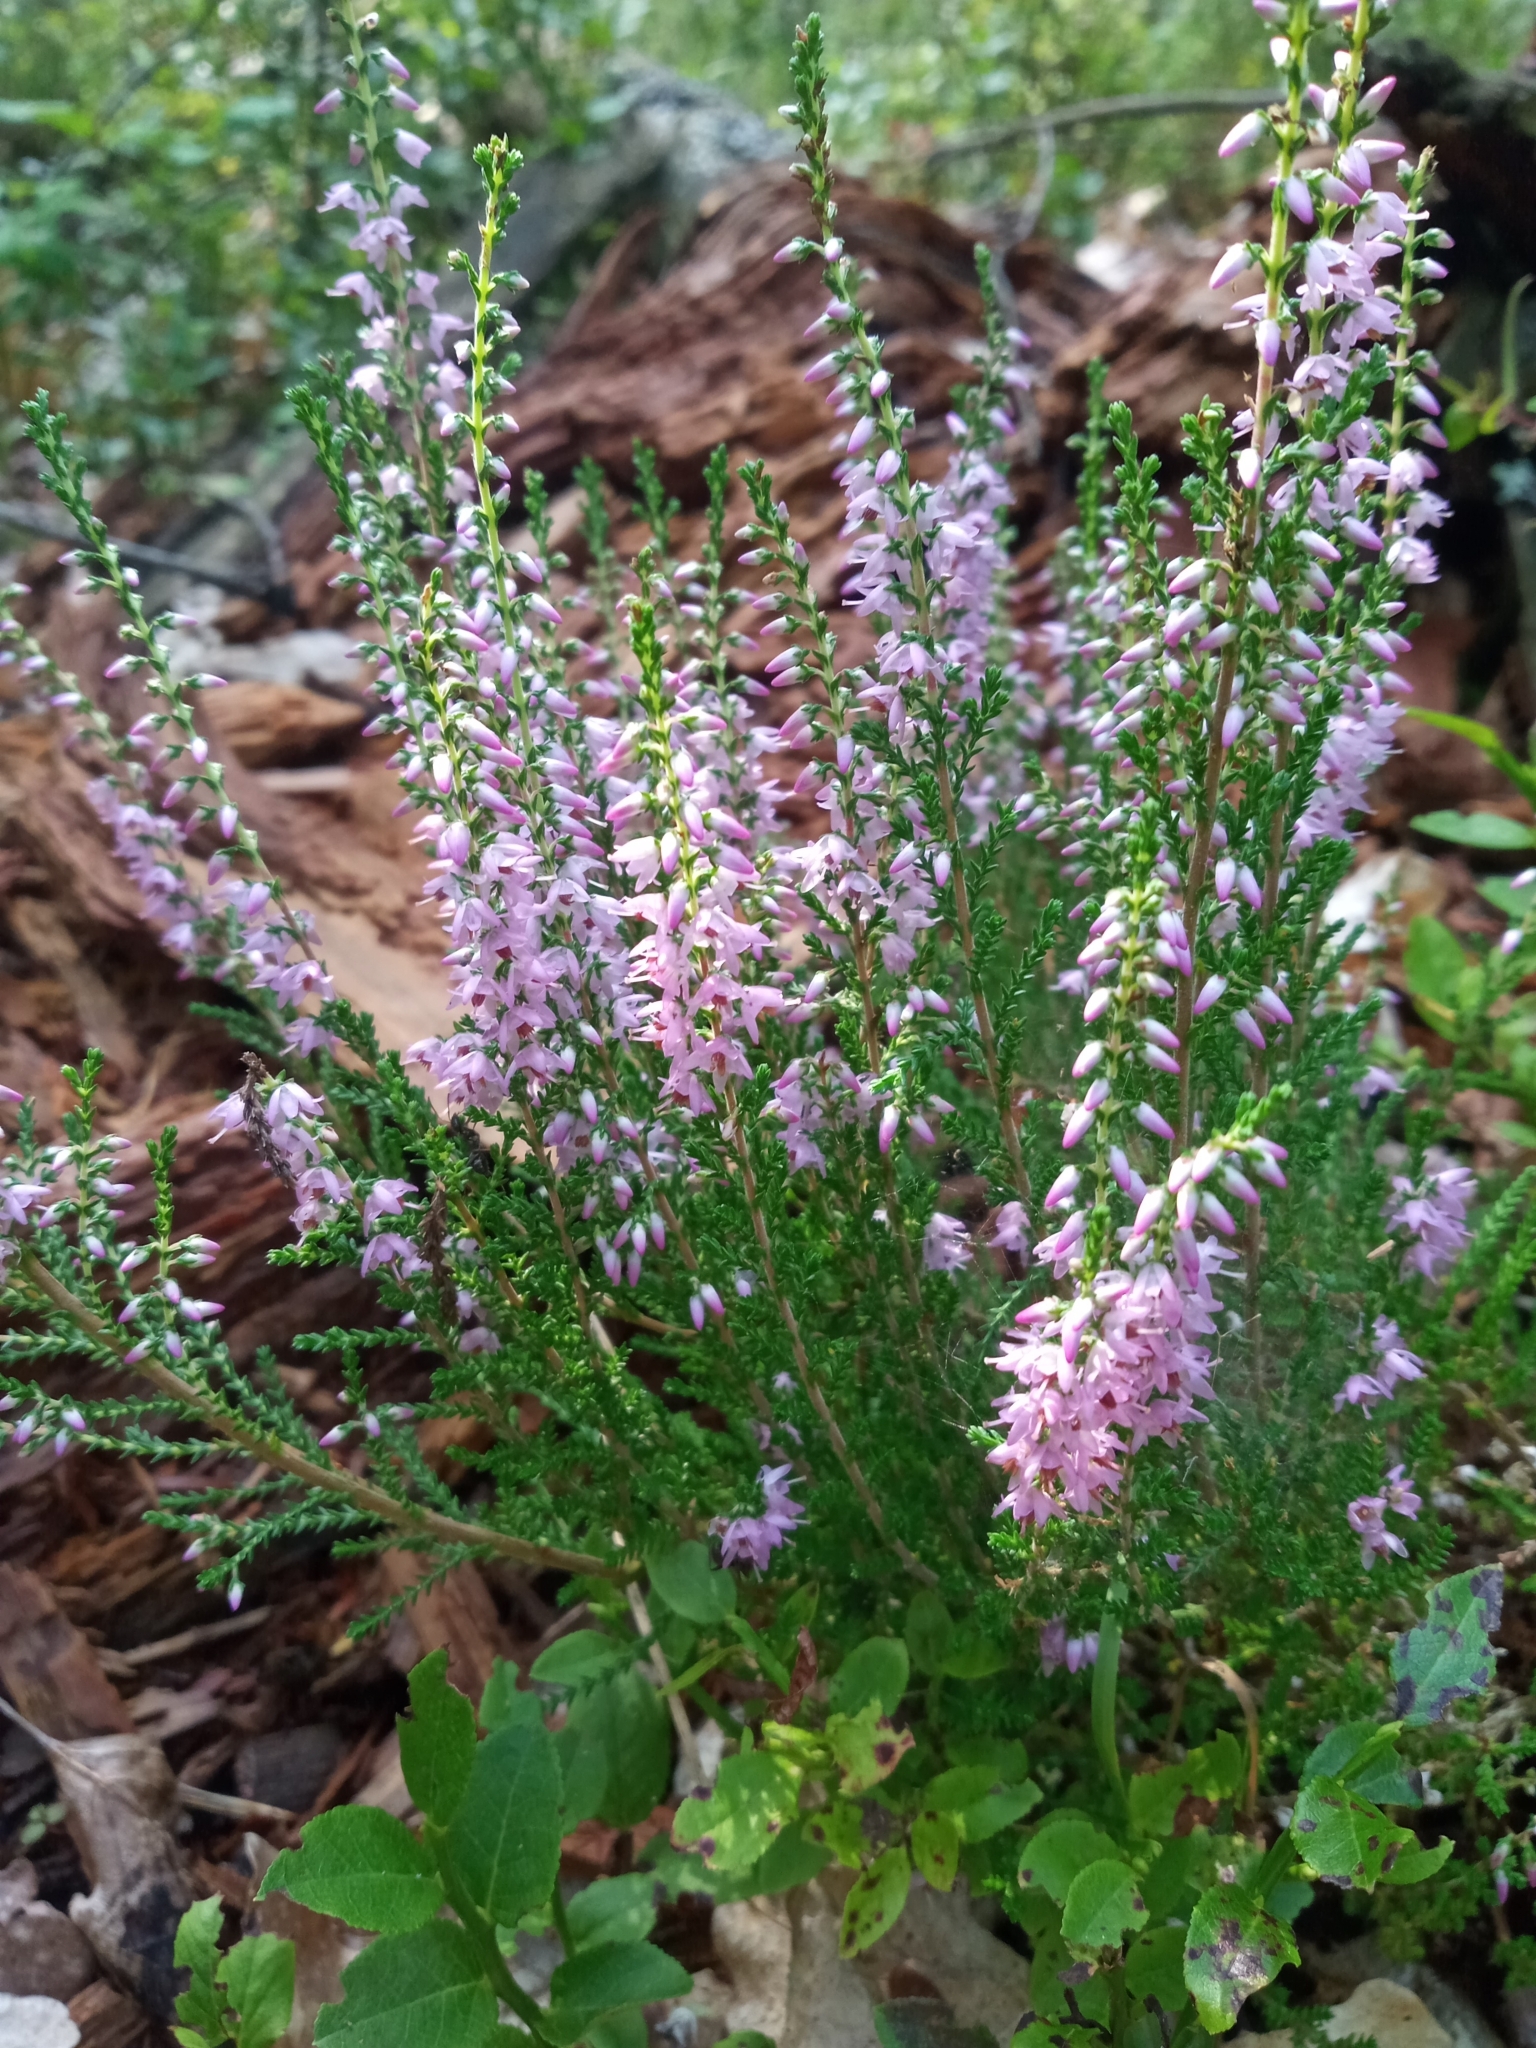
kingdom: Plantae
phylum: Tracheophyta
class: Magnoliopsida
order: Ericales
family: Ericaceae
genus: Calluna
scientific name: Calluna vulgaris
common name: Heather
